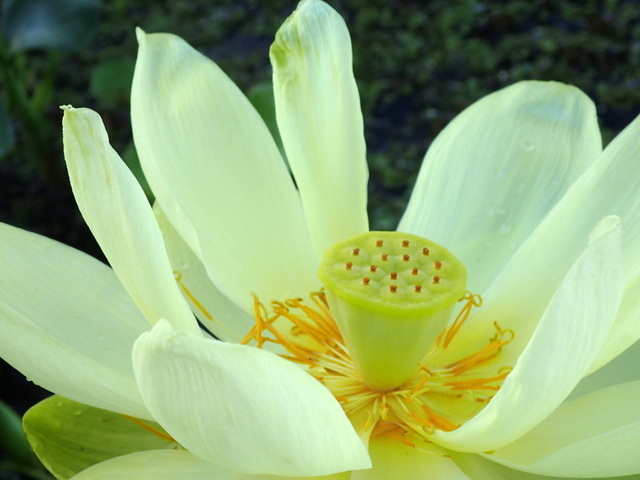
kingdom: Plantae
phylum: Tracheophyta
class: Magnoliopsida
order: Proteales
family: Nelumbonaceae
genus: Nelumbo
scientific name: Nelumbo lutea
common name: American lotus
